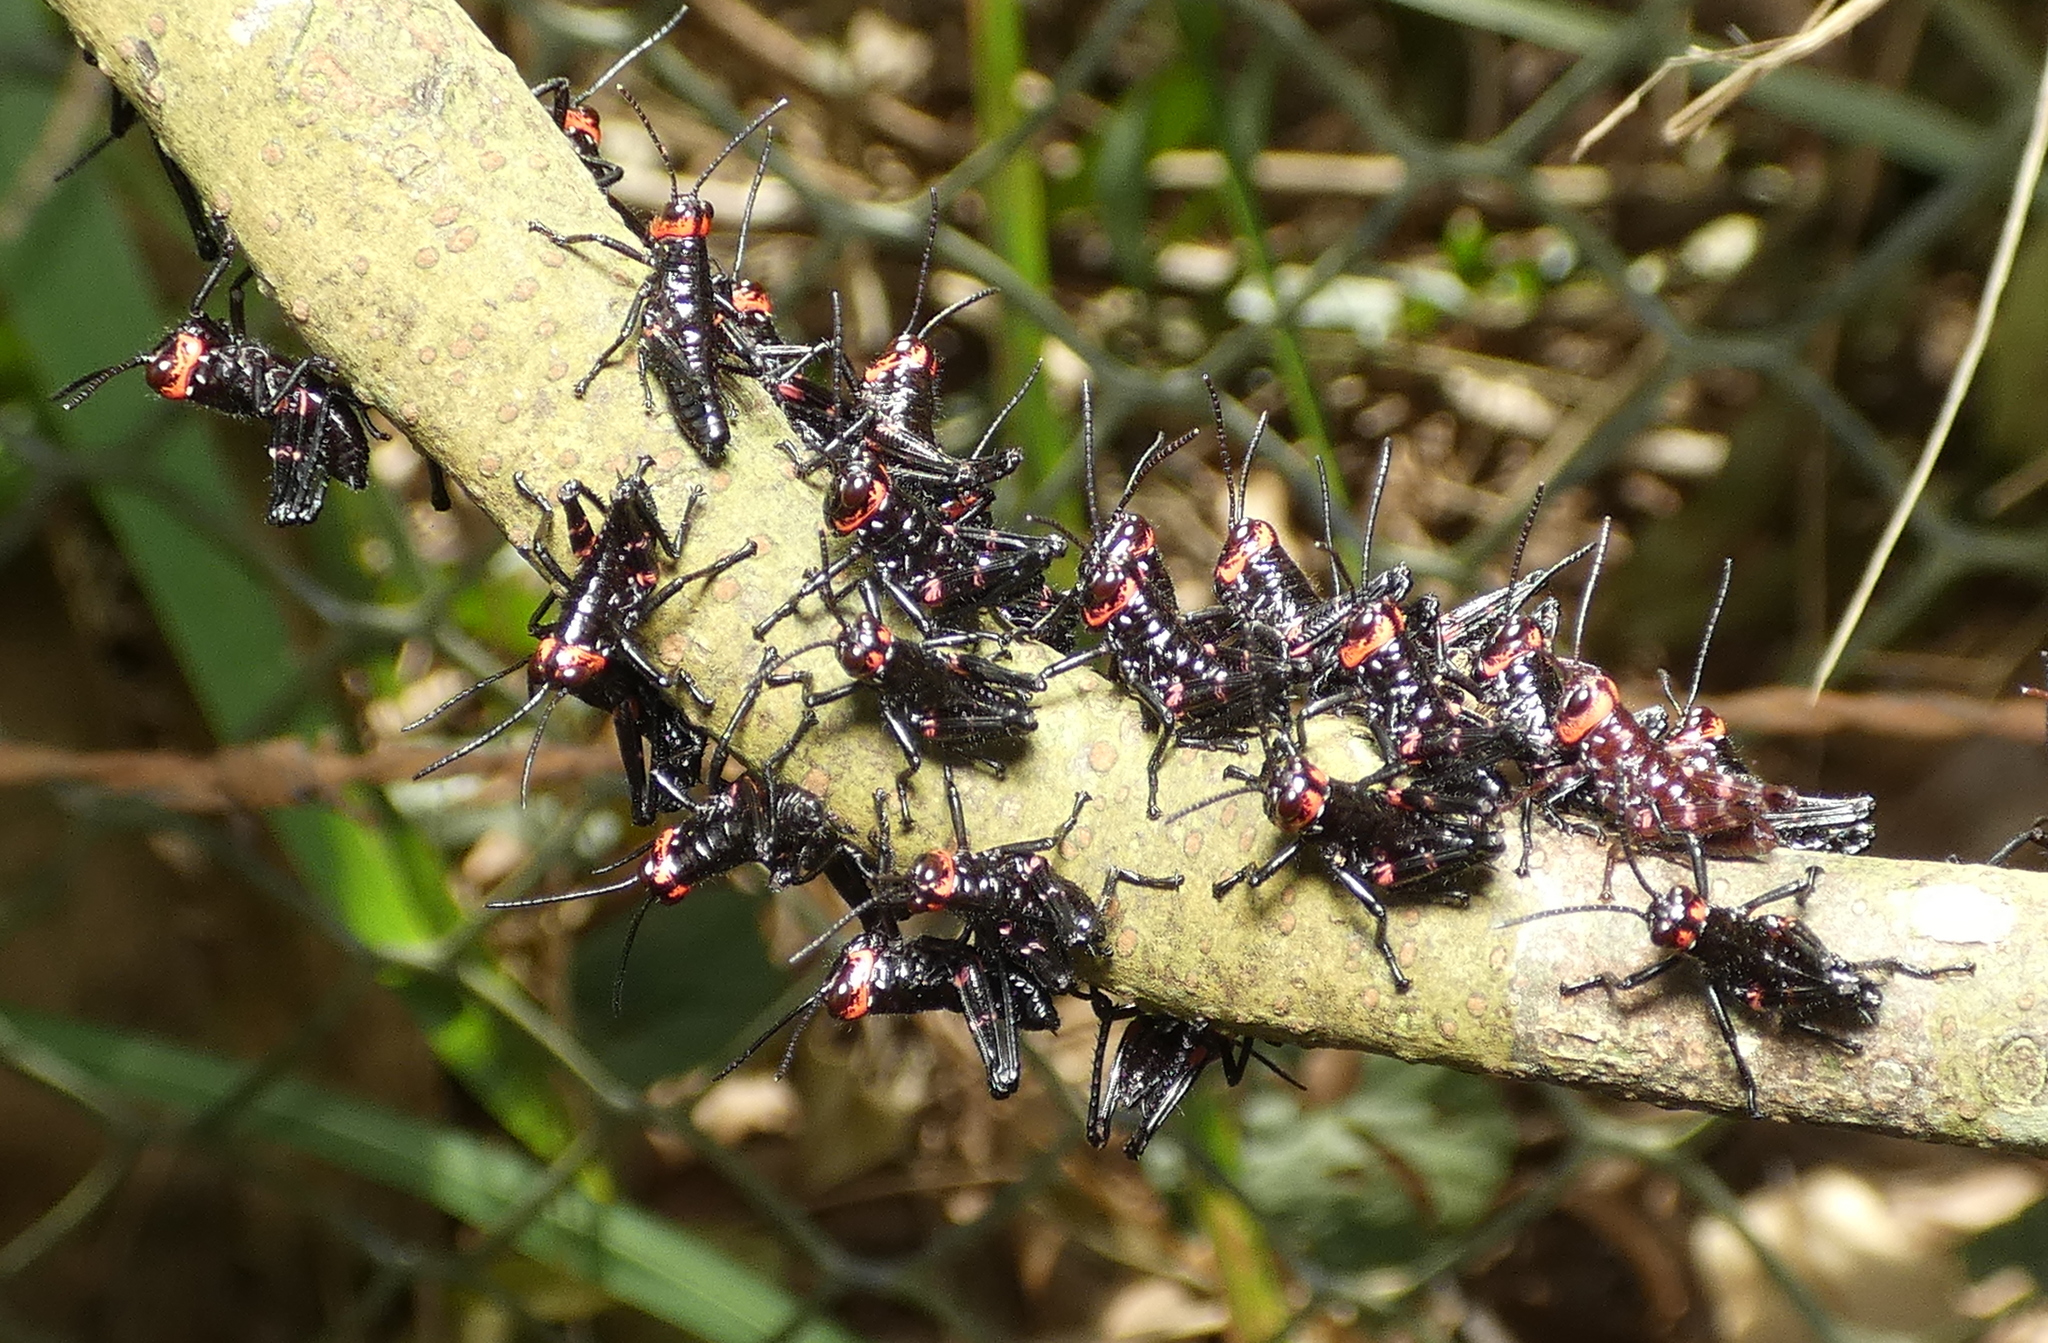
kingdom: Animalia
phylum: Arthropoda
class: Insecta
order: Orthoptera
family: Romaleidae
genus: Chromacris
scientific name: Chromacris speciosa
